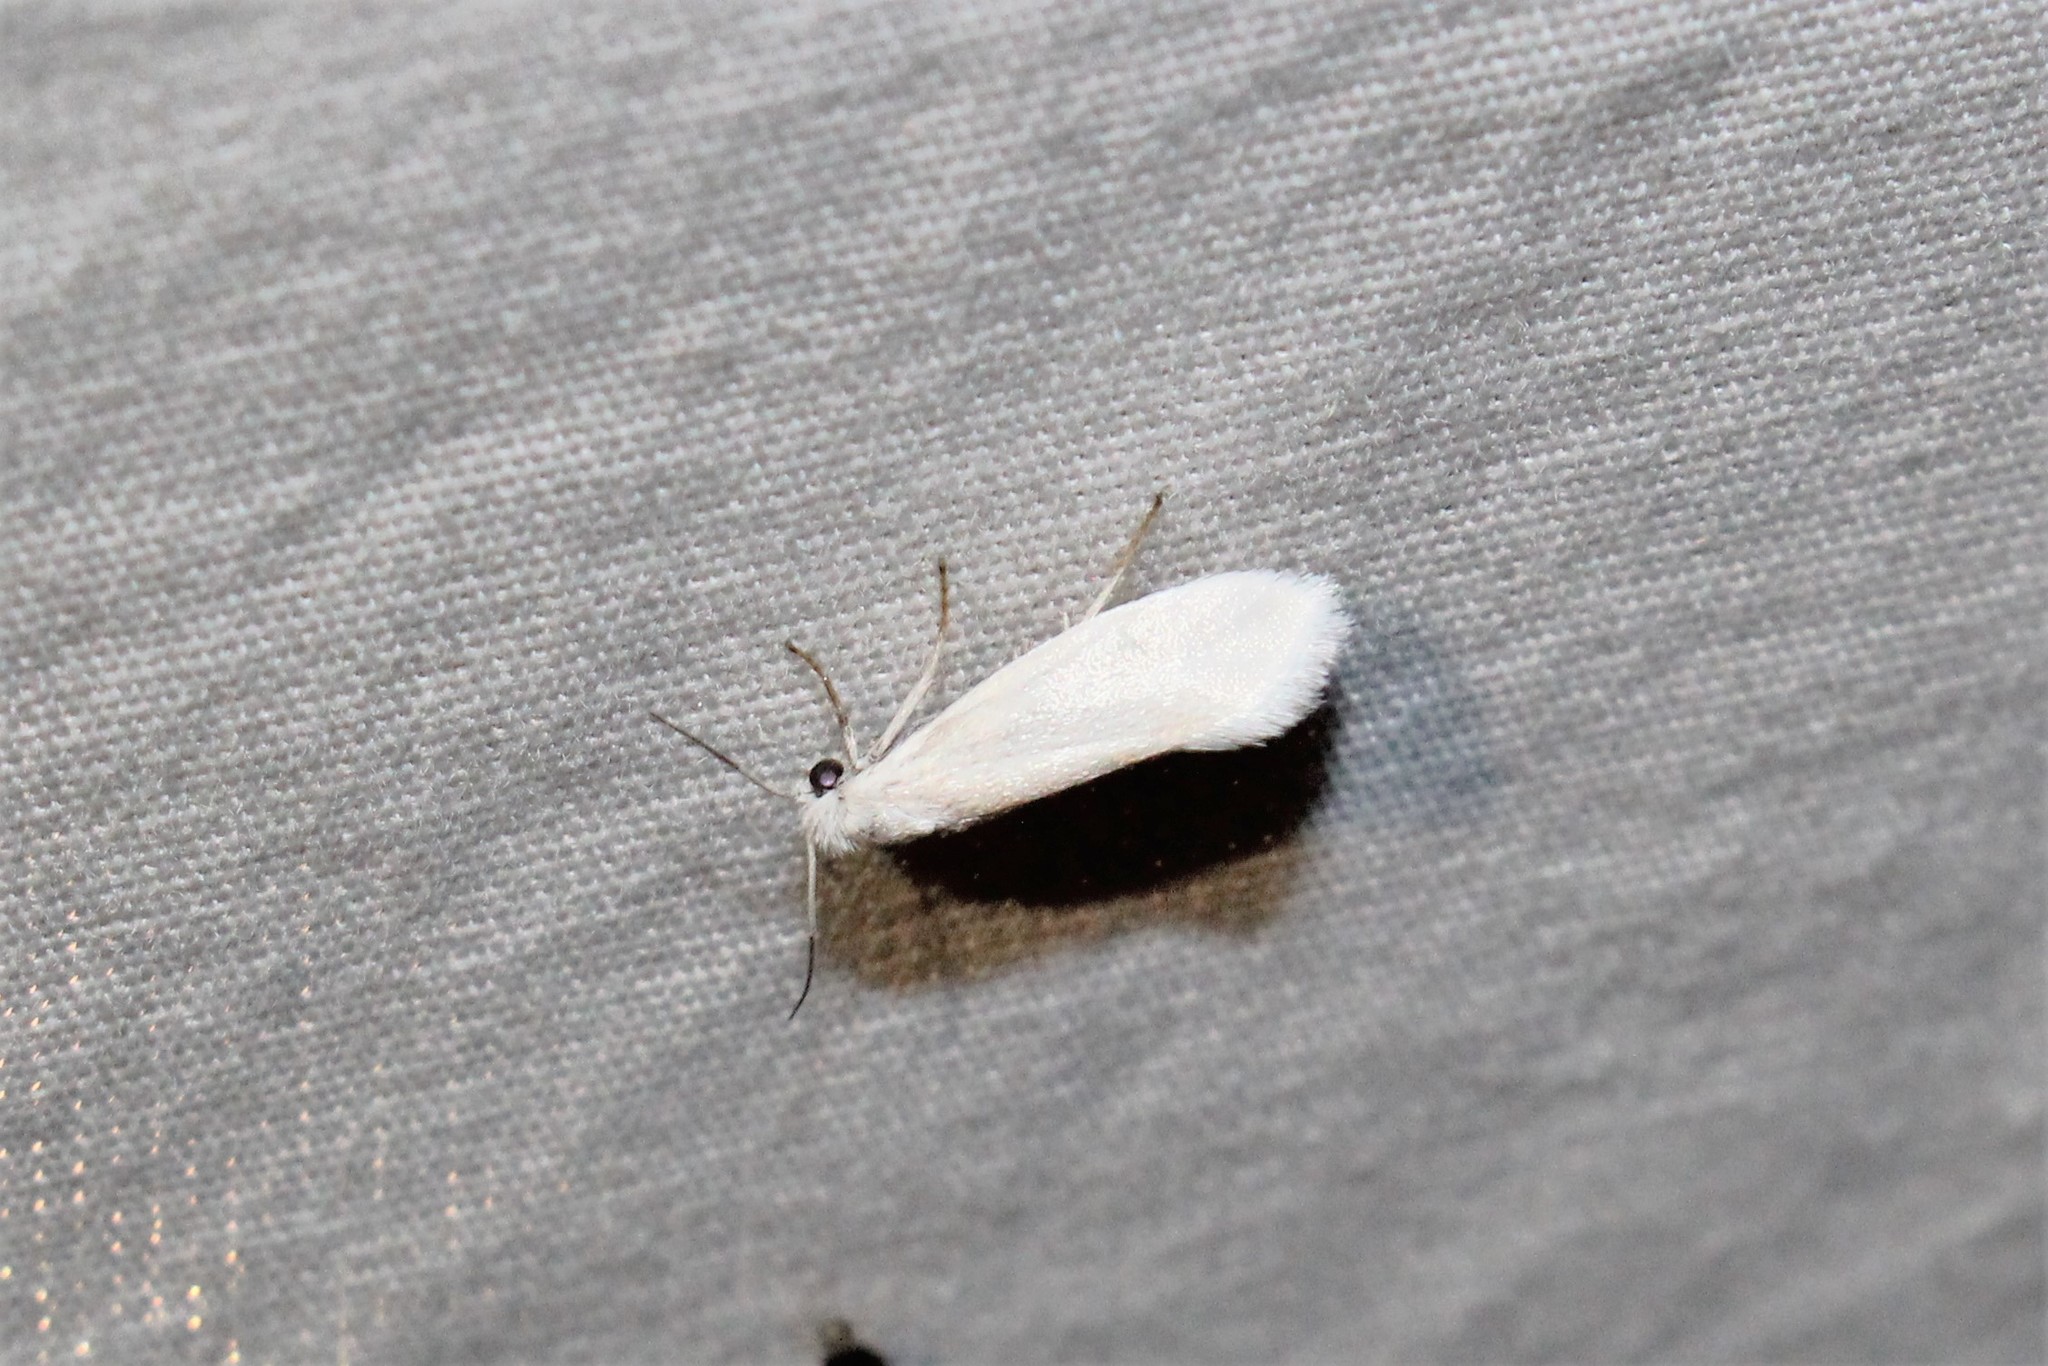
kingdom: Animalia
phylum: Arthropoda
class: Insecta
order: Lepidoptera
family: Prodoxidae
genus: Tegeticula
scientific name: Tegeticula yuccasella
